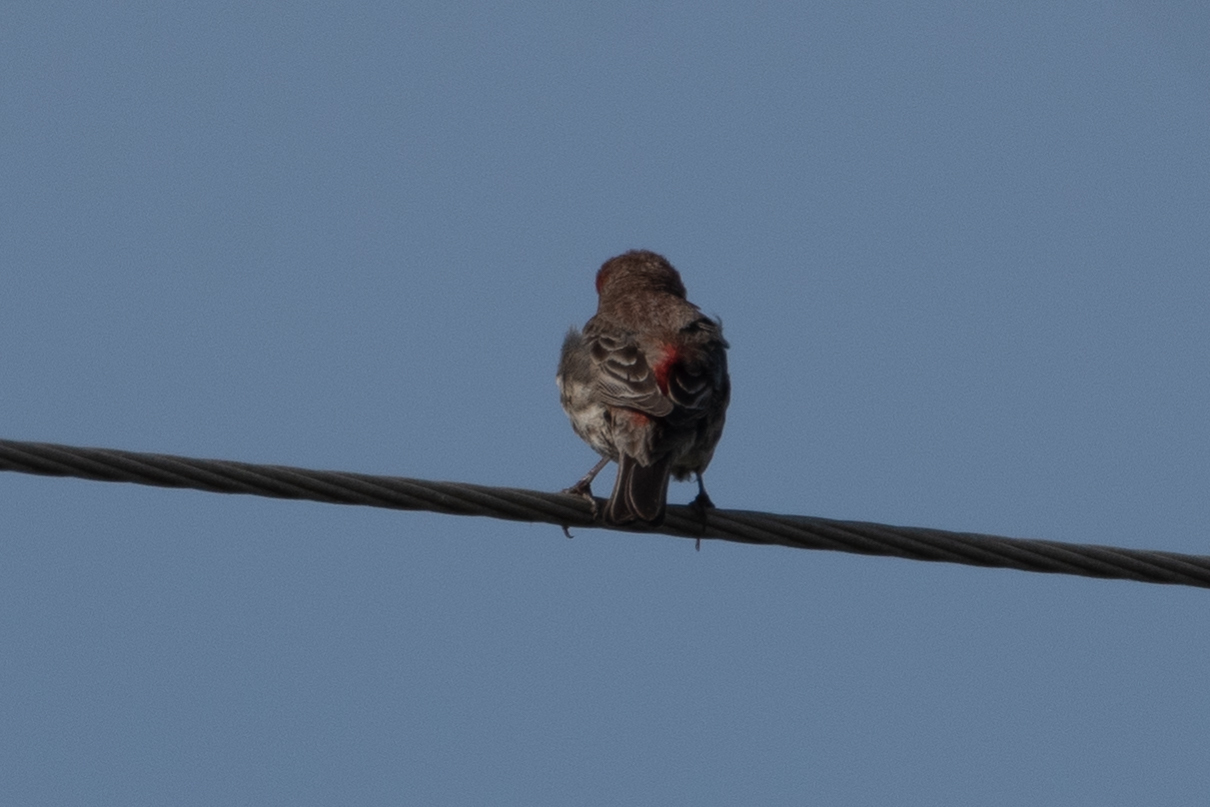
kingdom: Animalia
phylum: Chordata
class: Aves
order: Passeriformes
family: Fringillidae
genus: Haemorhous
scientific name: Haemorhous mexicanus
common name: House finch
